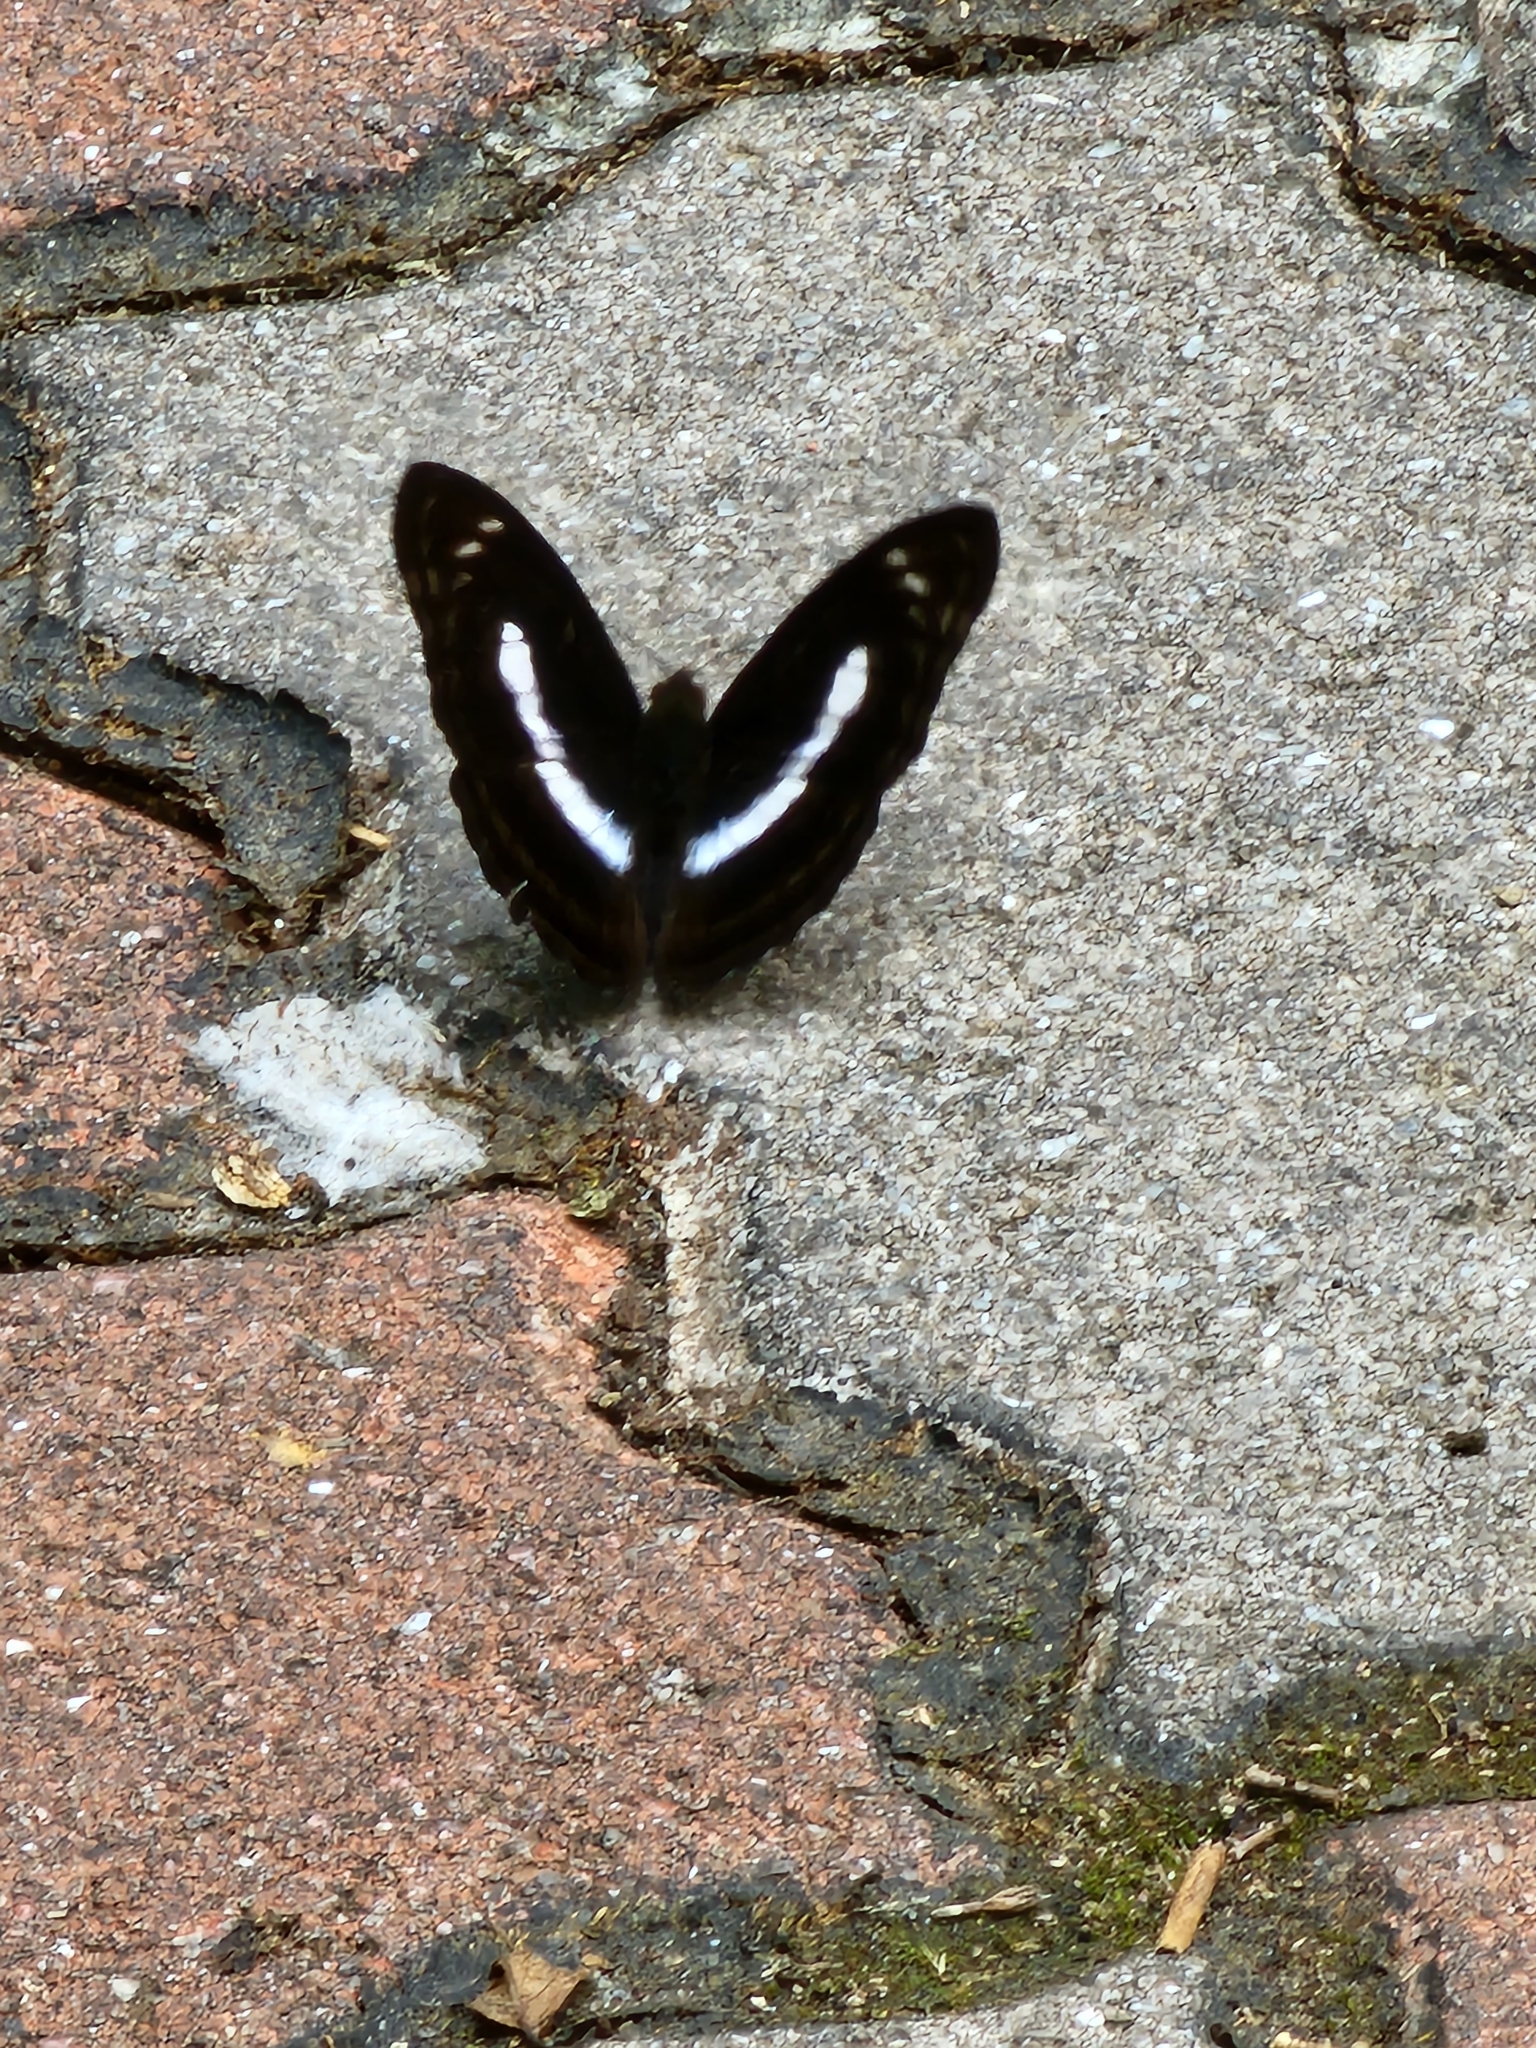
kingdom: Animalia
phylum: Arthropoda
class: Insecta
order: Lepidoptera
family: Nymphalidae
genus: Parathyma
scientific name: Parathyma selenophora
